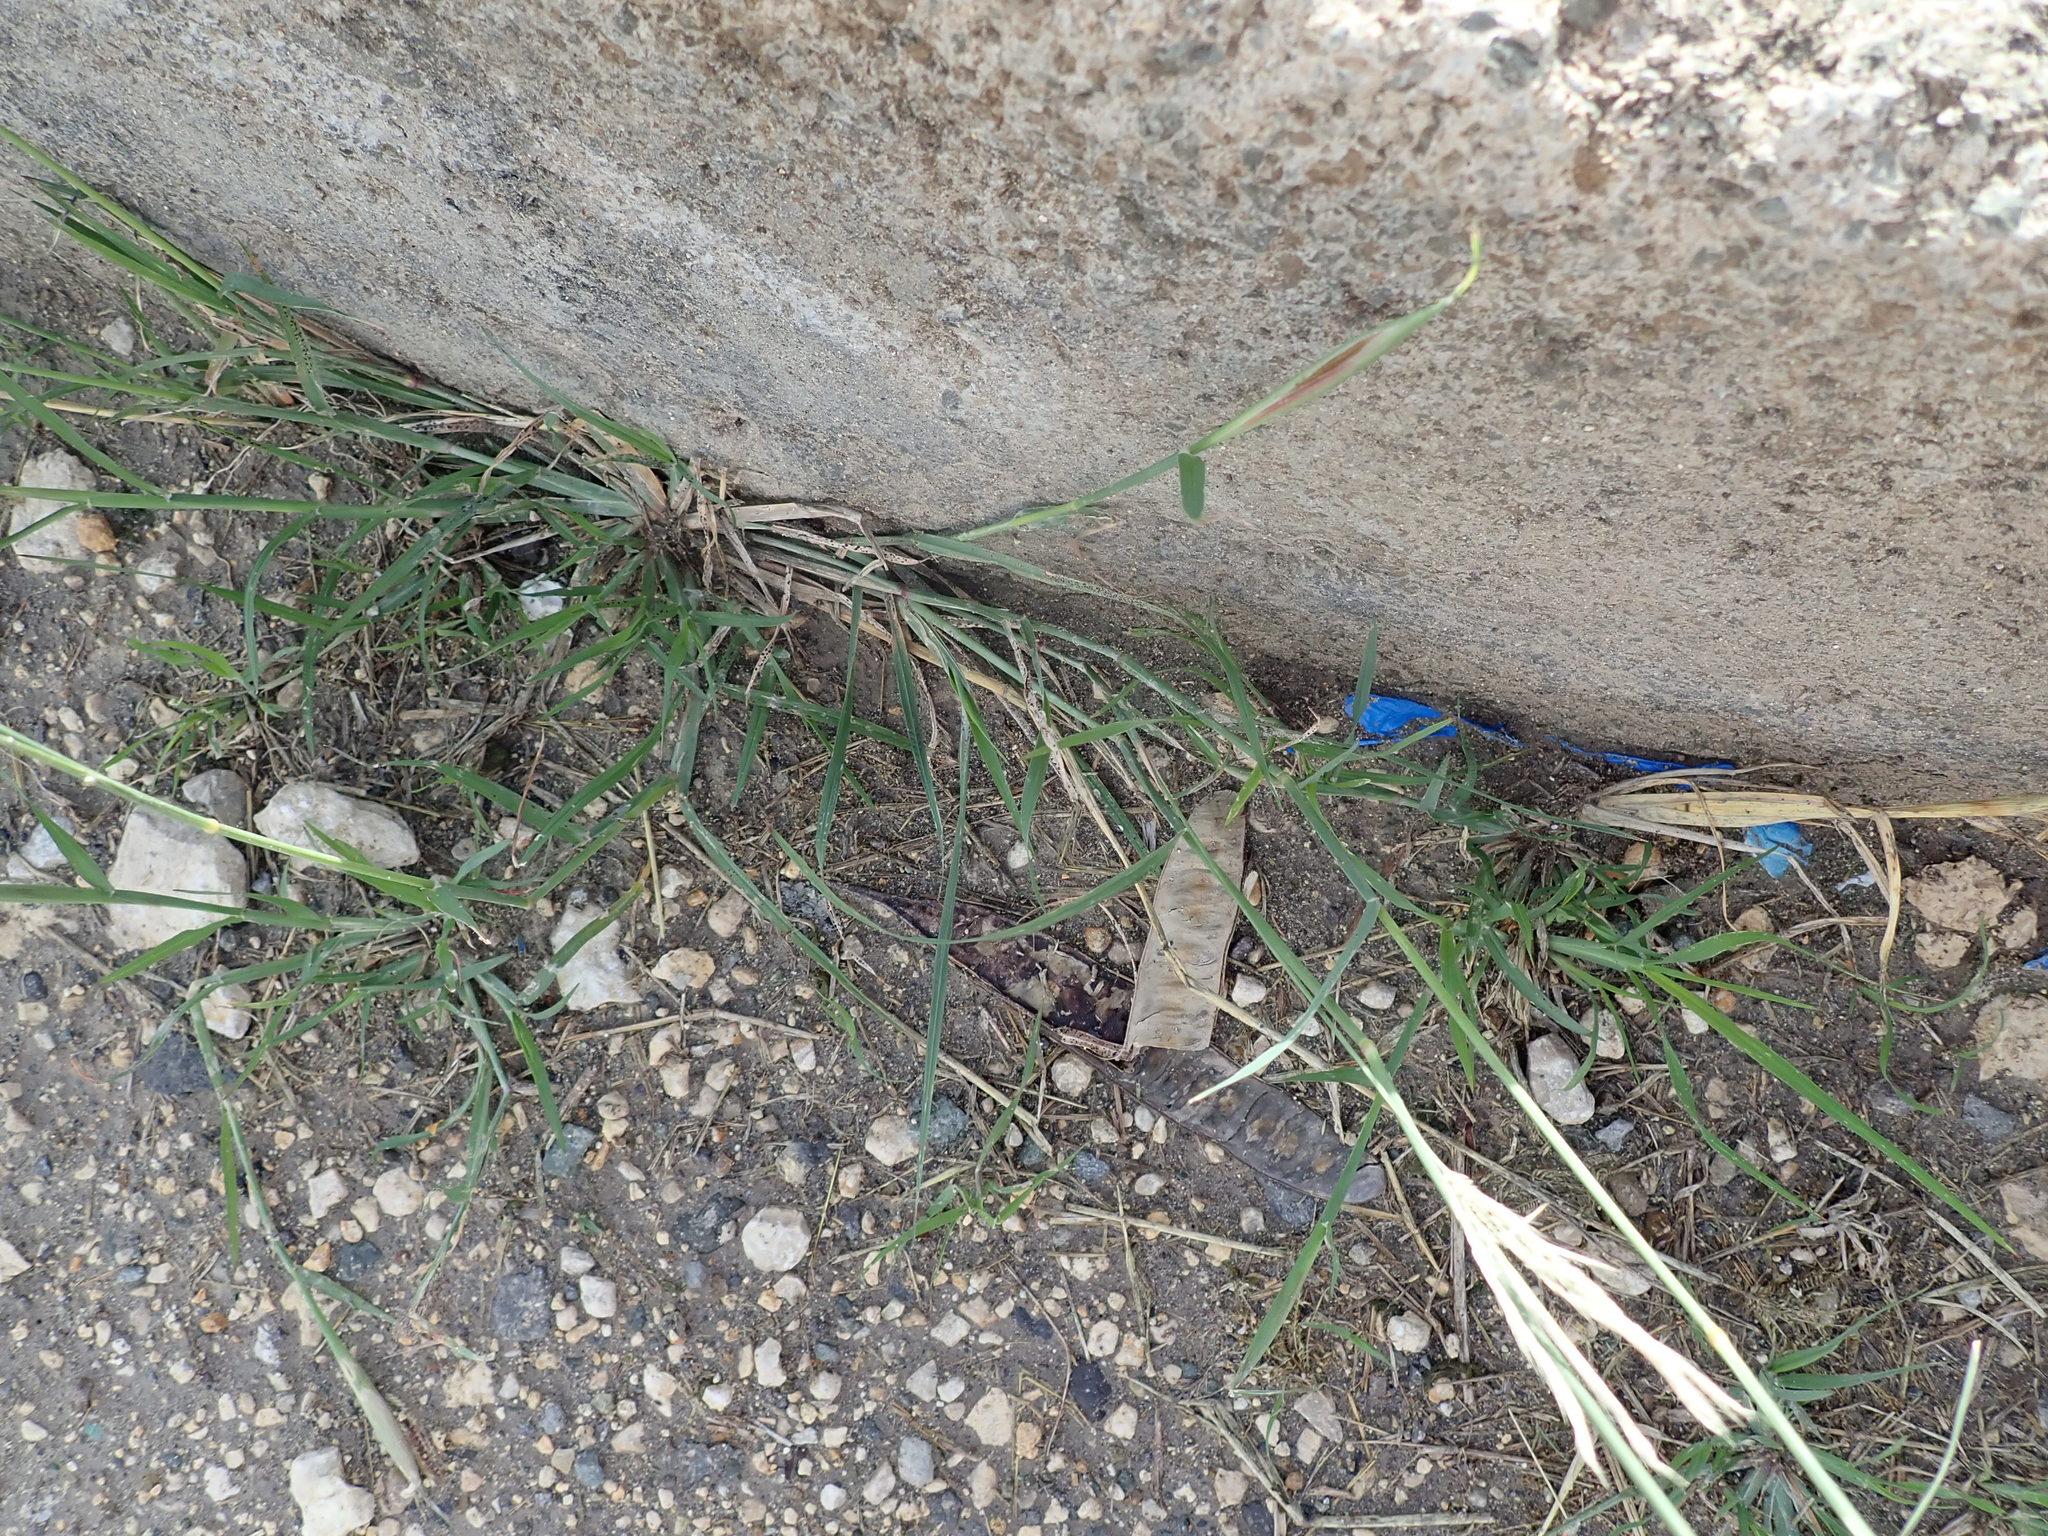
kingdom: Plantae
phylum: Tracheophyta
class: Liliopsida
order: Poales
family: Poaceae
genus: Chloris
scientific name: Chloris barbata
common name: Swollen fingergrass
